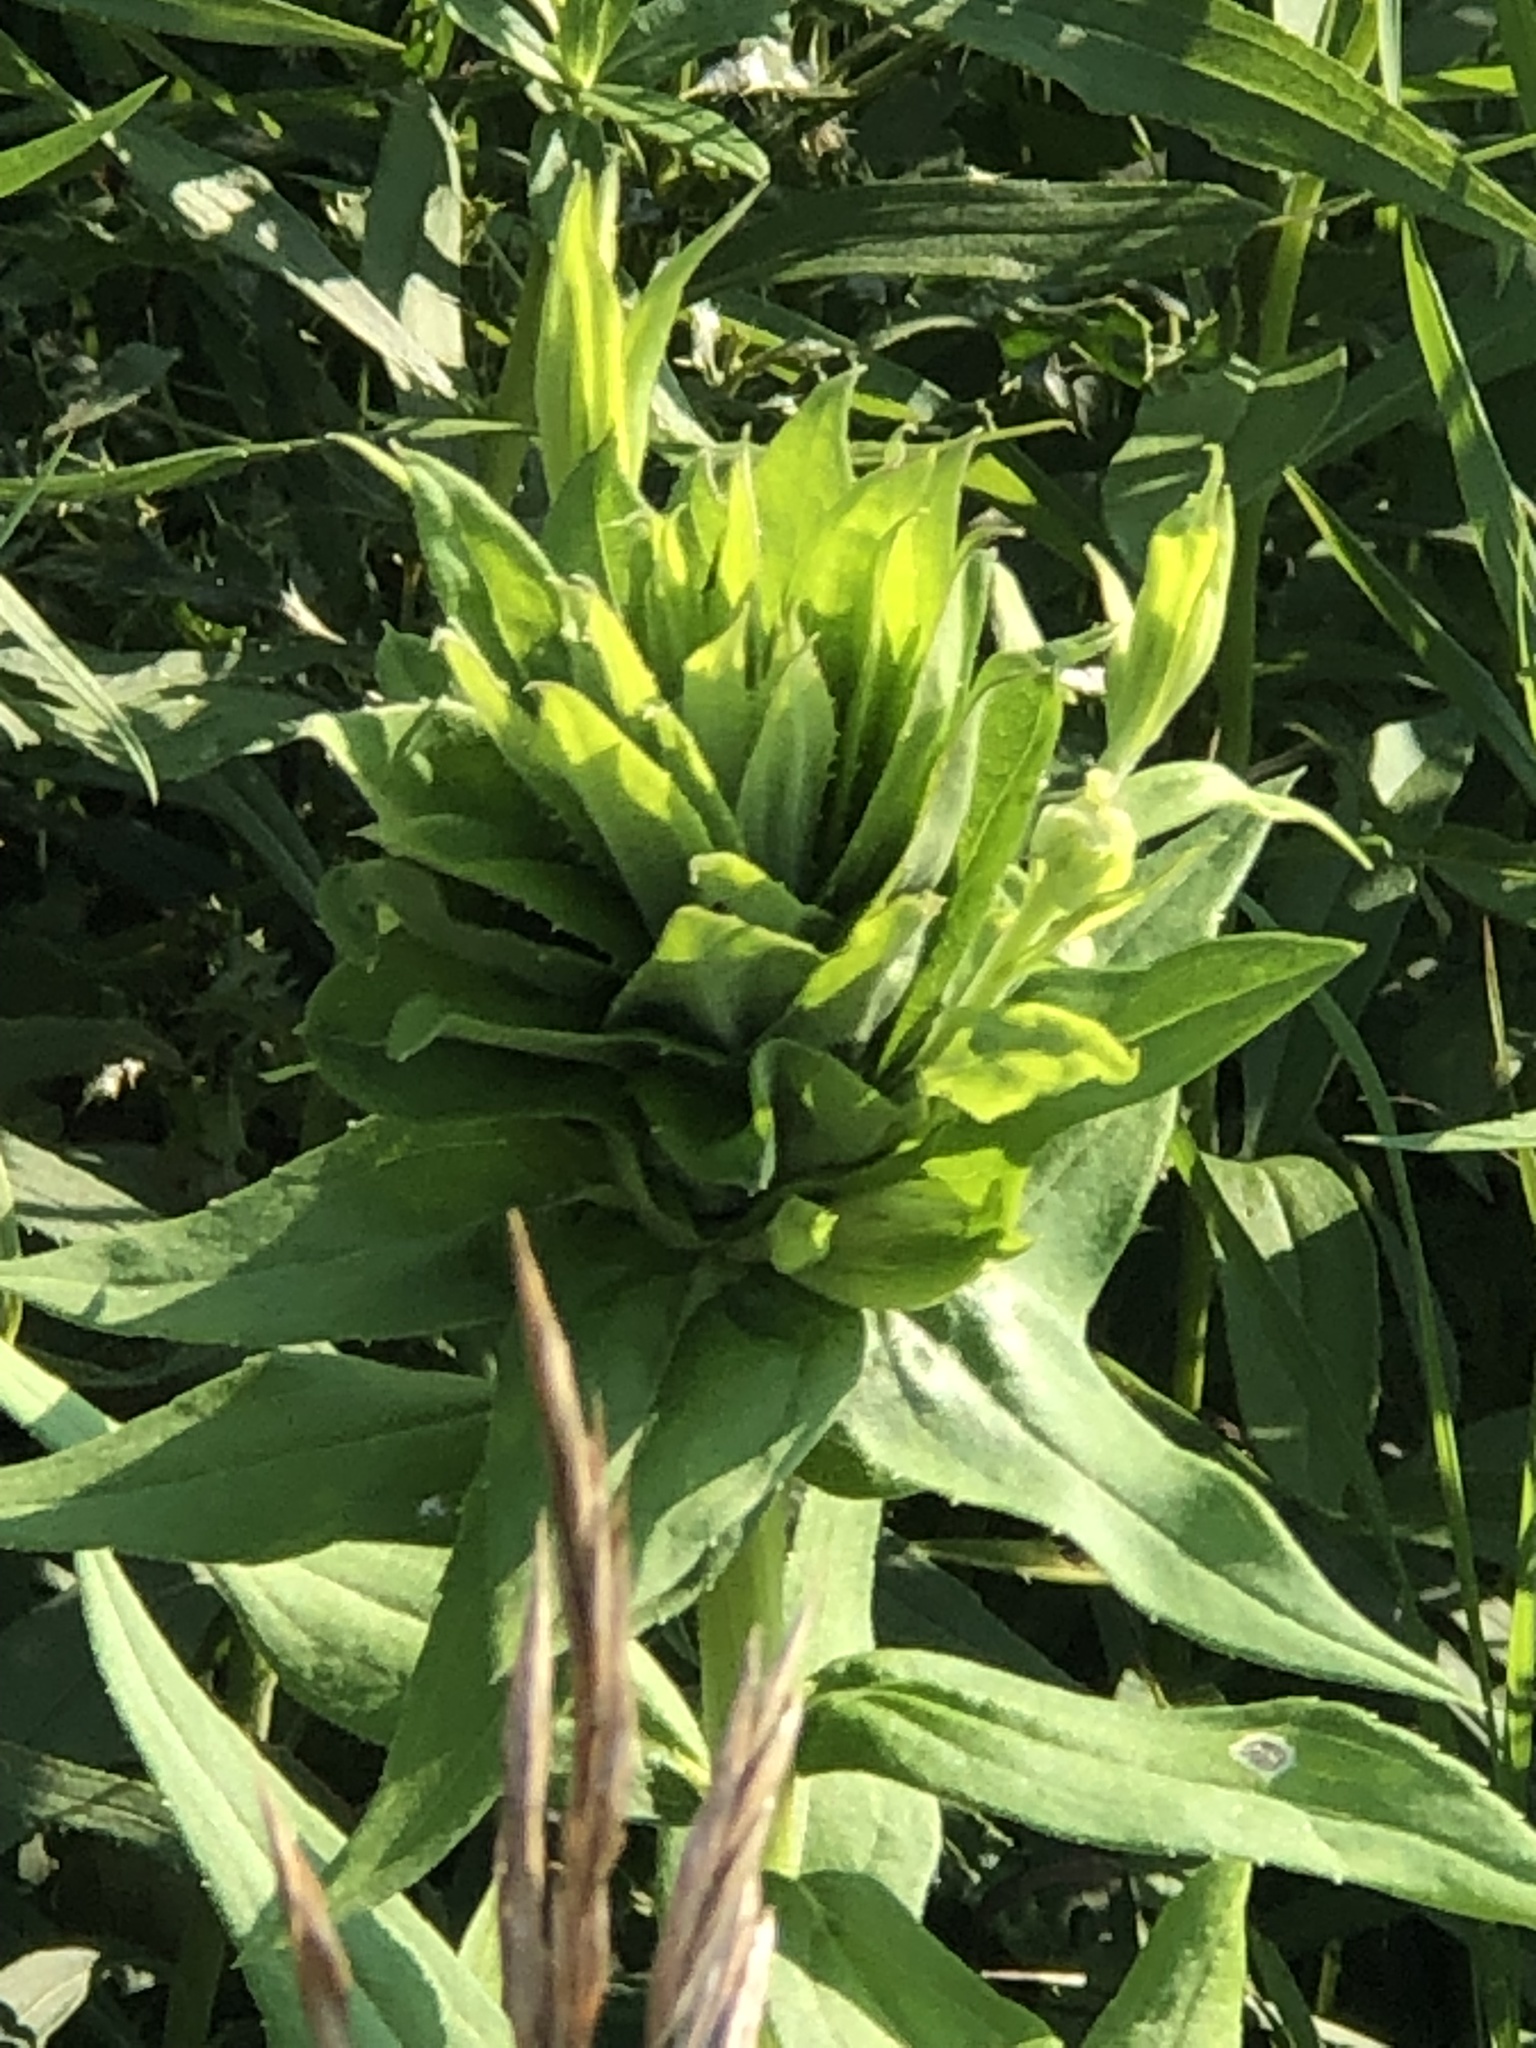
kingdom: Animalia
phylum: Arthropoda
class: Insecta
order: Diptera
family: Cecidomyiidae
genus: Rhopalomyia
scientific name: Rhopalomyia solidaginis
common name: Goldenrod bunch gall midge
